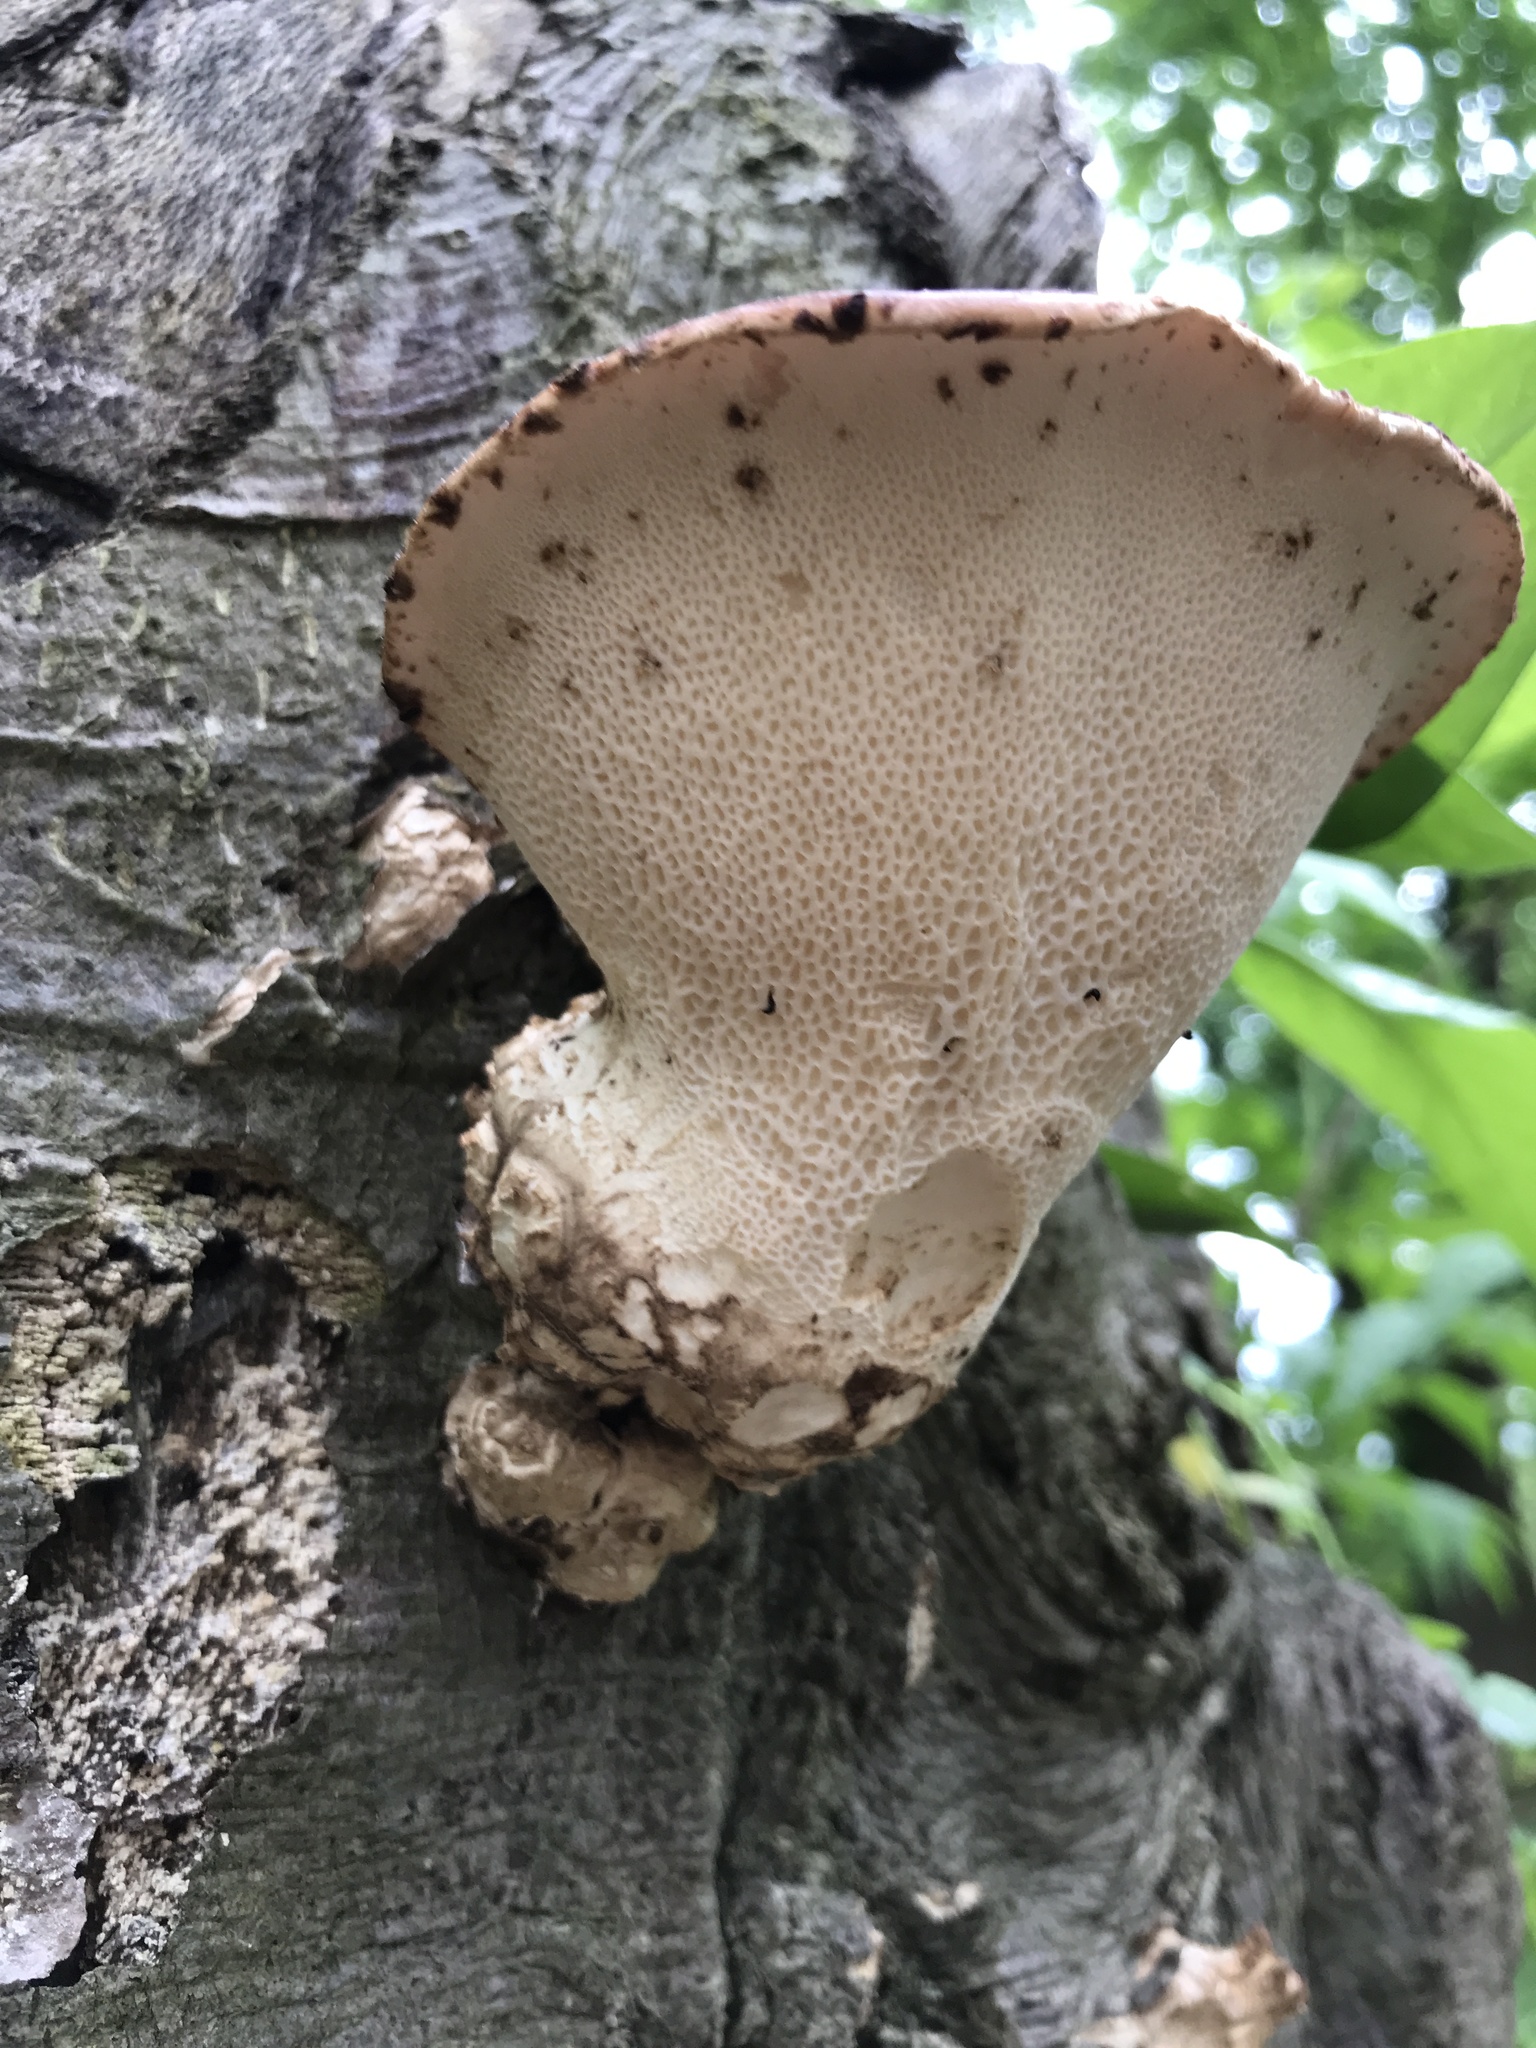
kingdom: Fungi
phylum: Basidiomycota
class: Agaricomycetes
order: Polyporales
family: Polyporaceae
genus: Cerioporus
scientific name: Cerioporus squamosus
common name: Dryad's saddle
